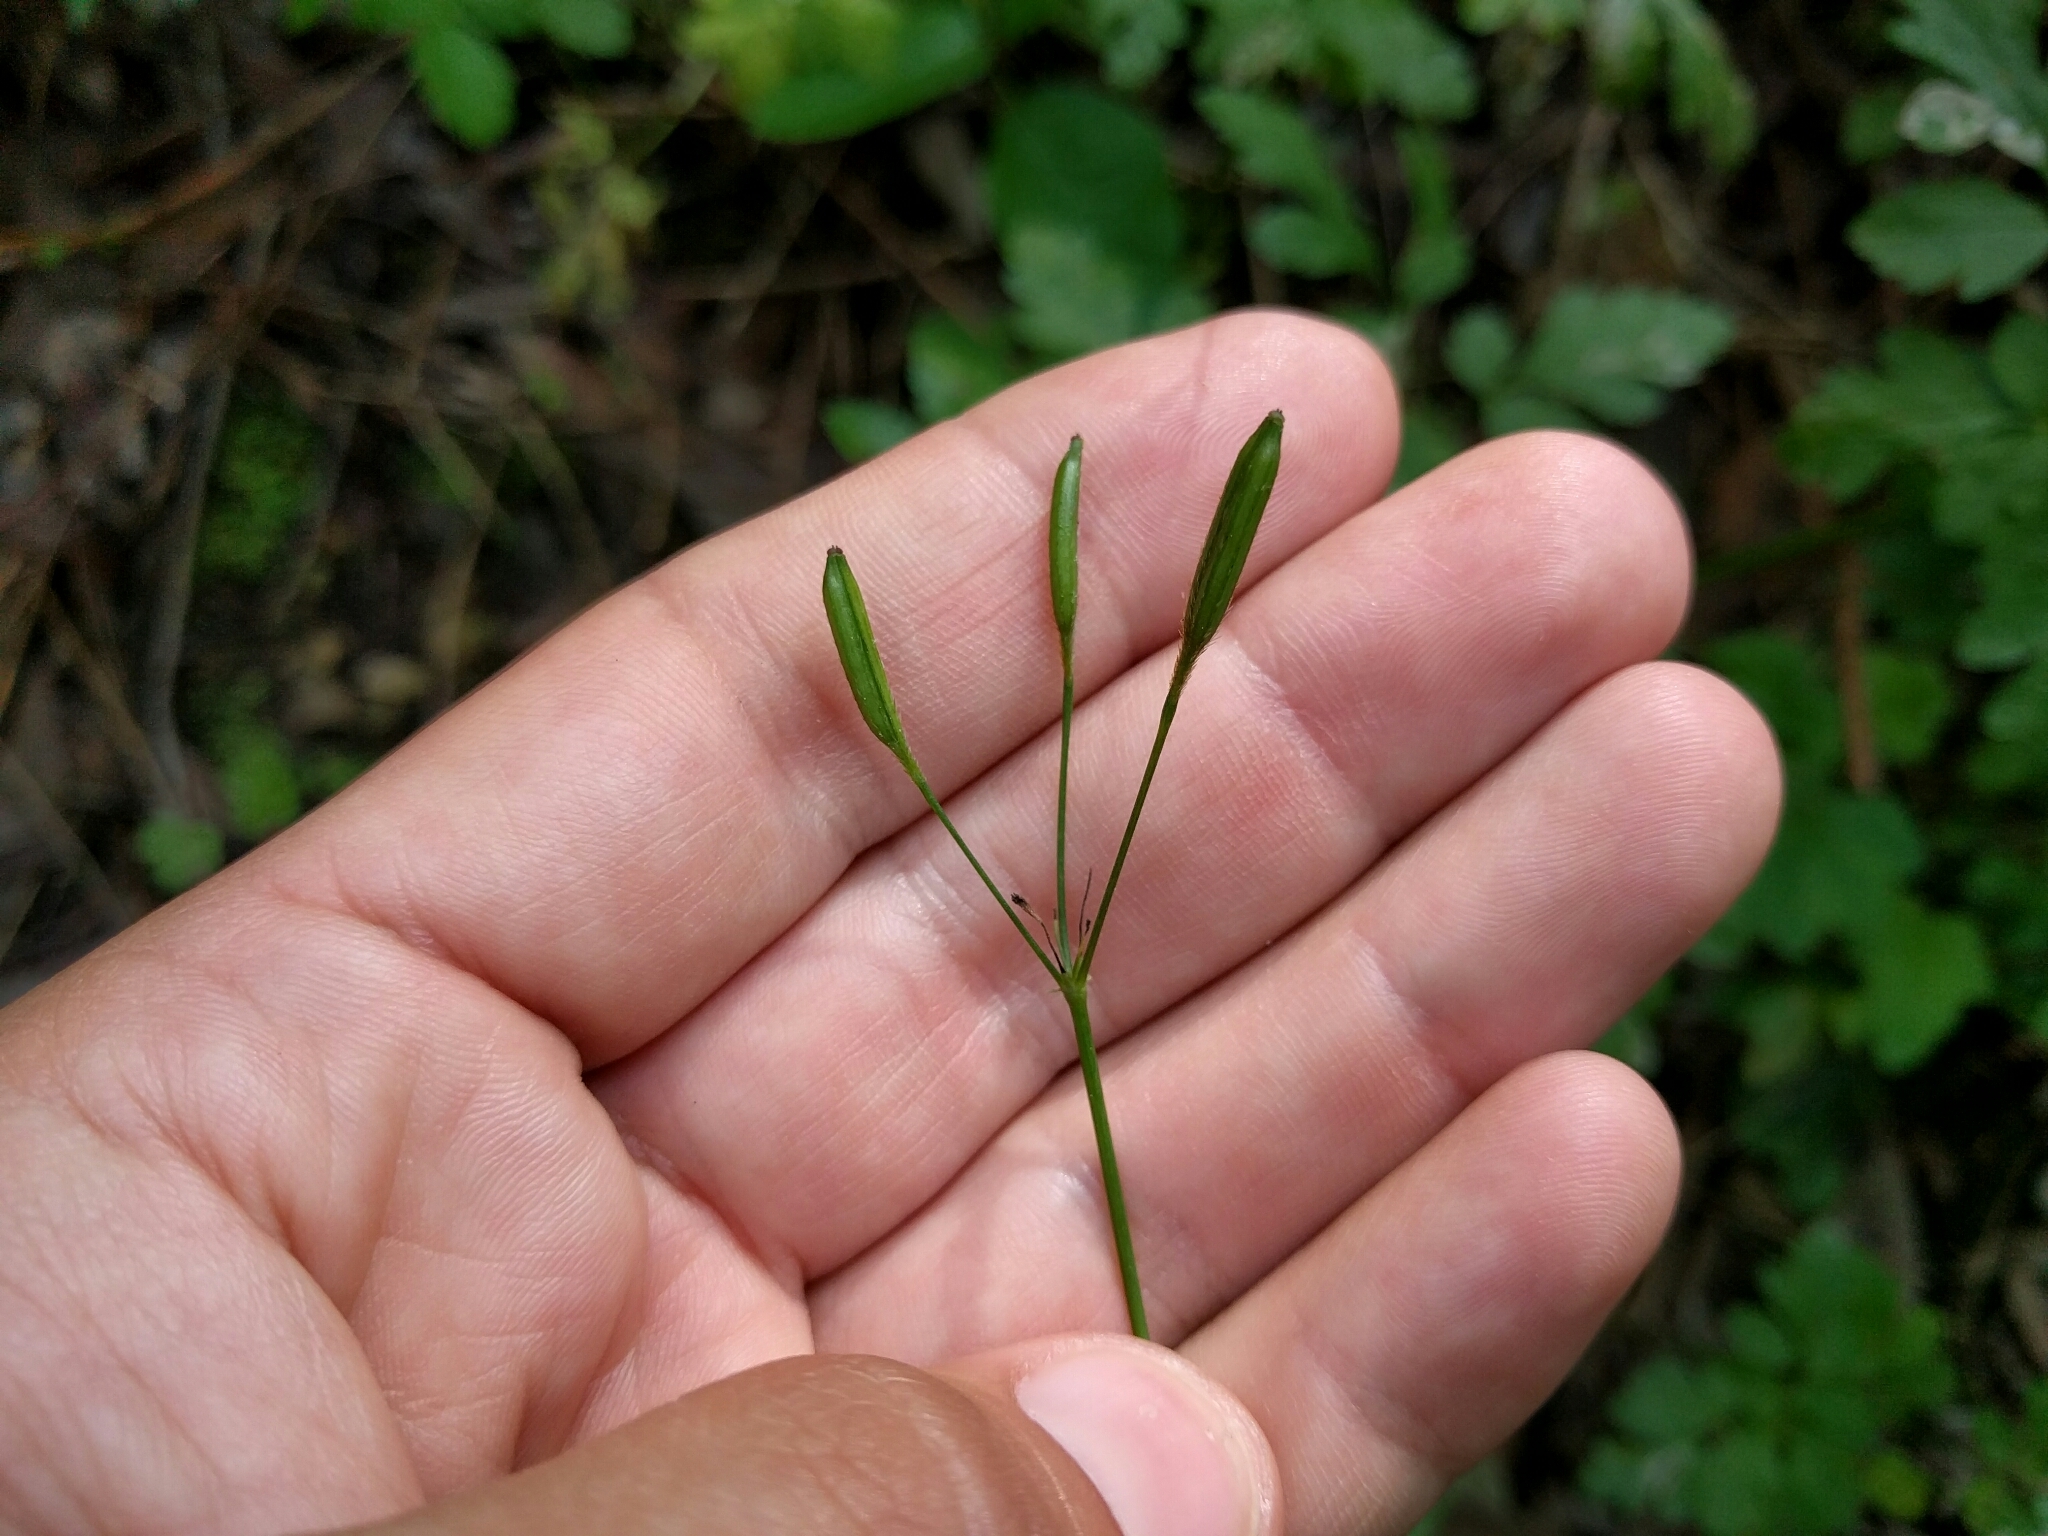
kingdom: Plantae
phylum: Tracheophyta
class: Magnoliopsida
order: Apiales
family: Apiaceae
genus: Osmorhiza
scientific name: Osmorhiza berteroi
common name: Mountain sweet cicely
